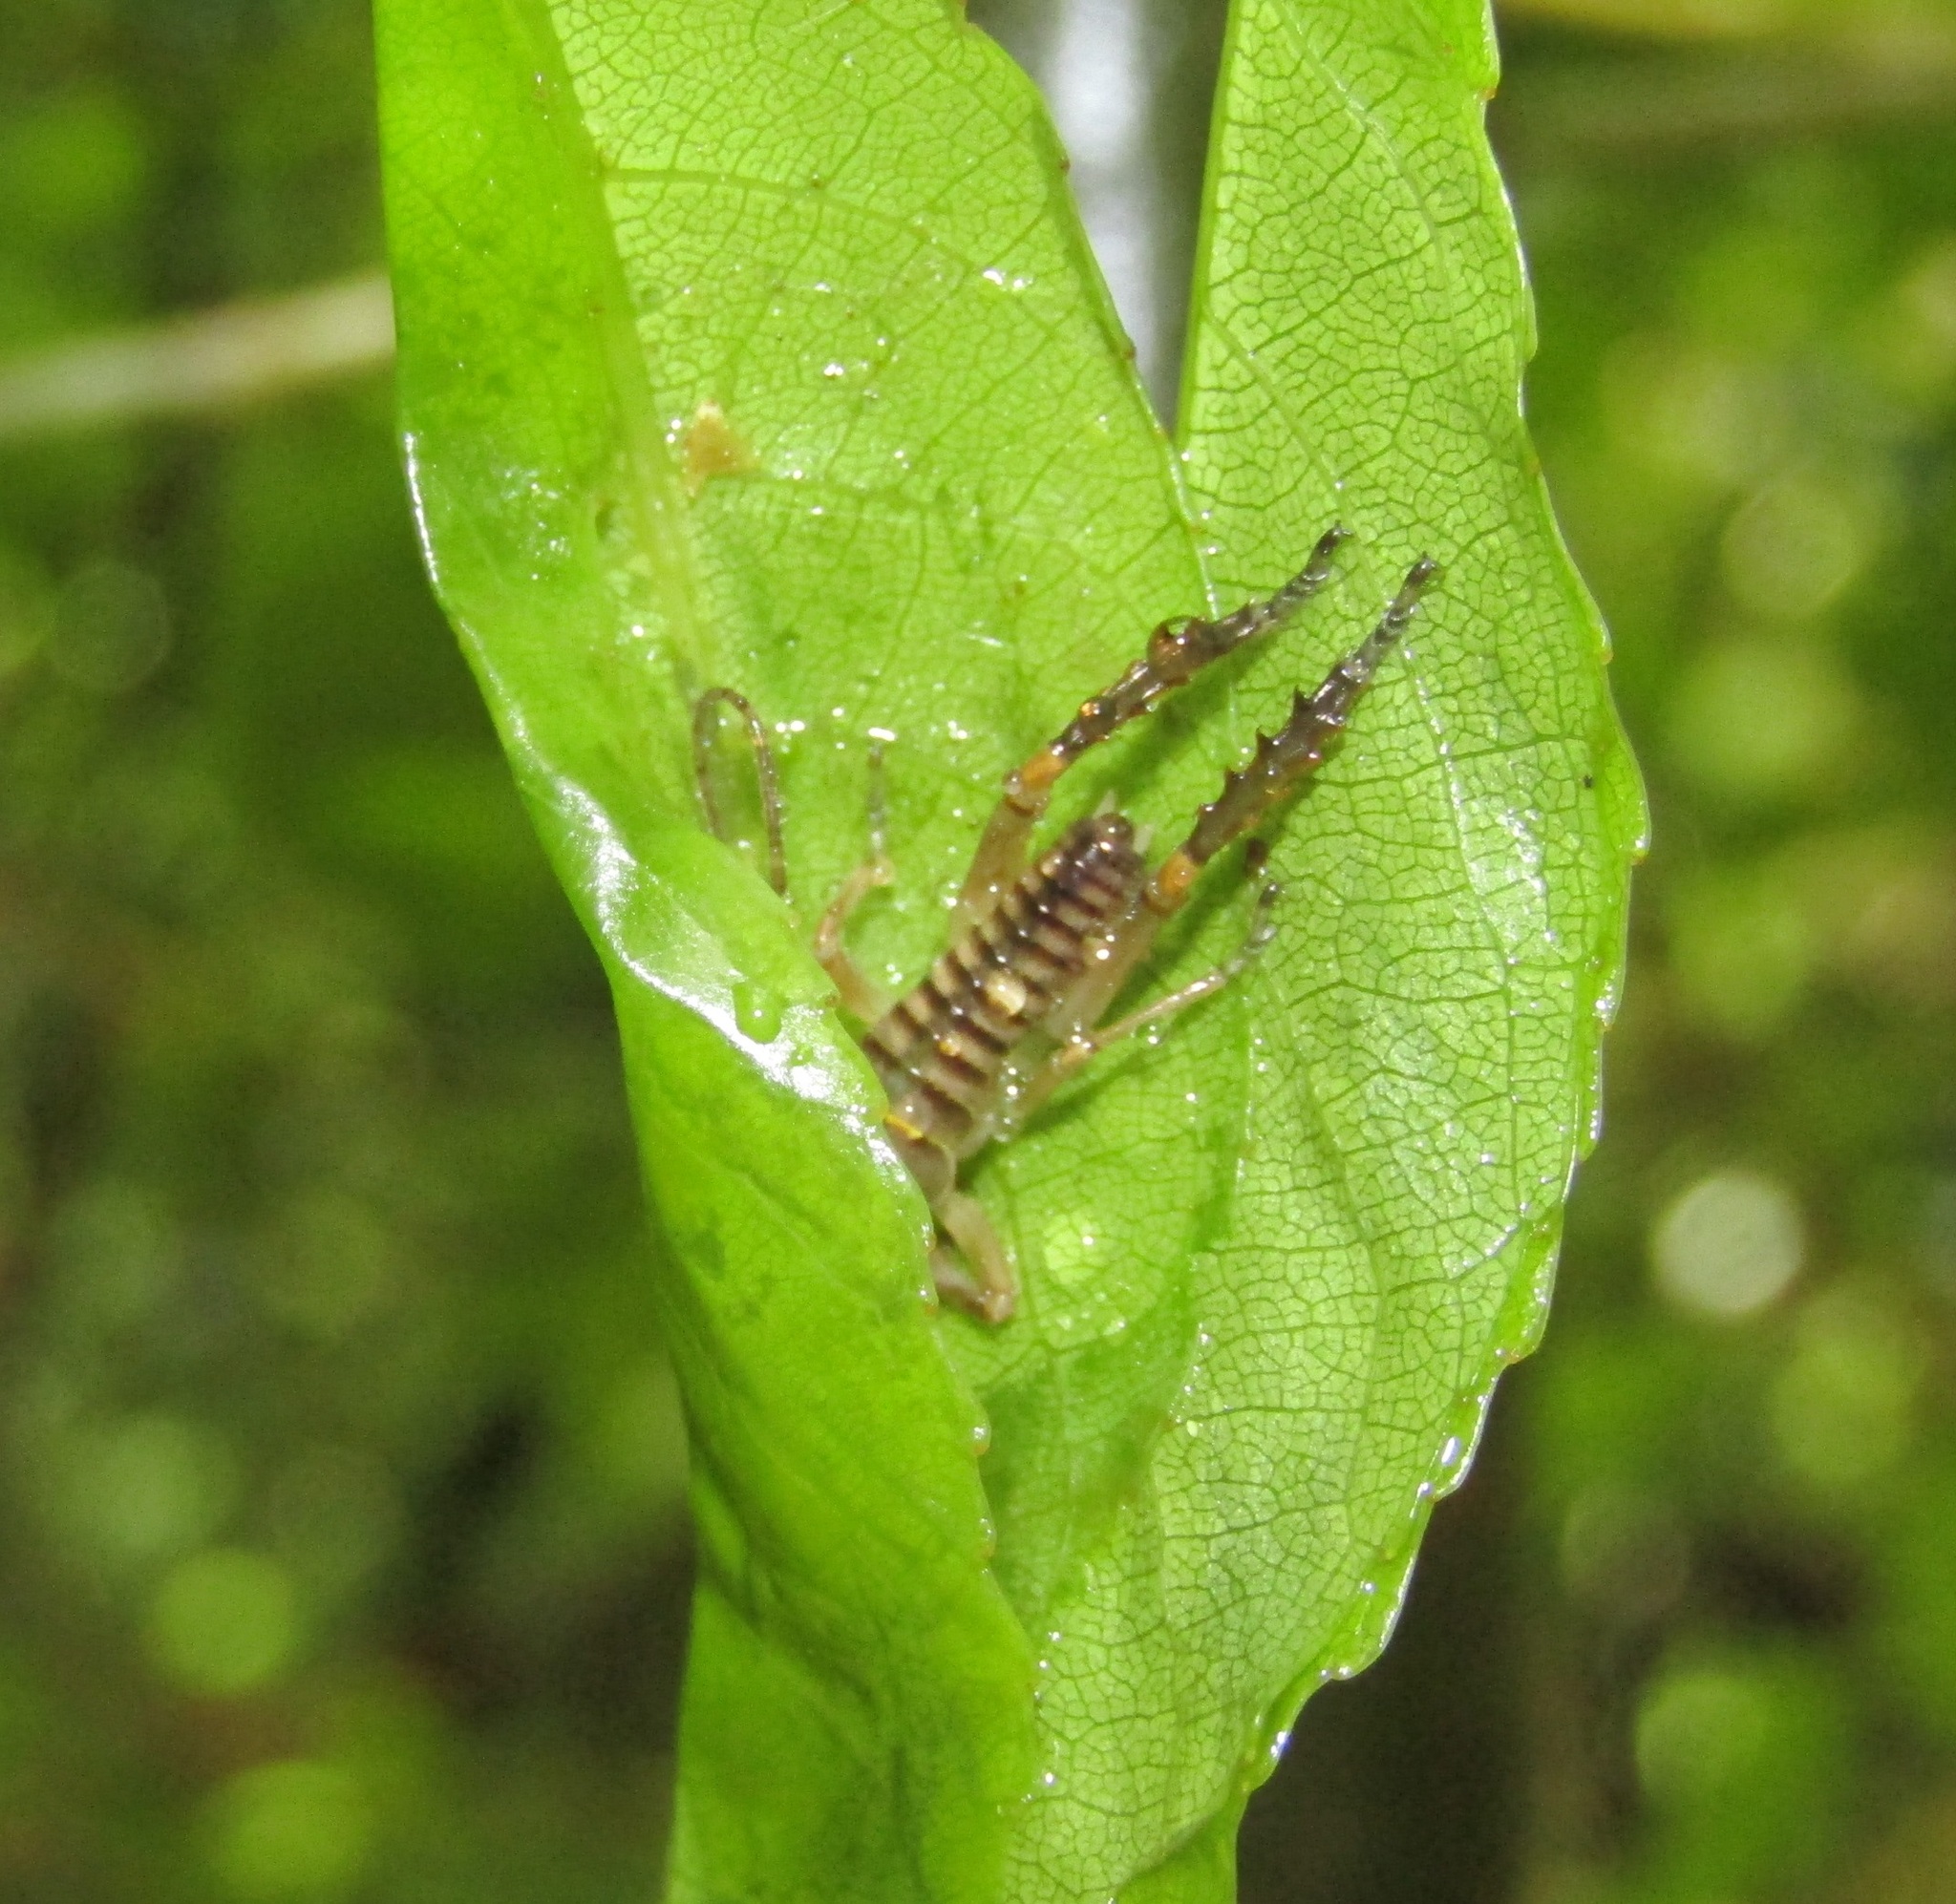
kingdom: Animalia
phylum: Arthropoda
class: Insecta
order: Orthoptera
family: Anostostomatidae
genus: Hemideina
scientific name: Hemideina crassidens
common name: Wellington tree weta
